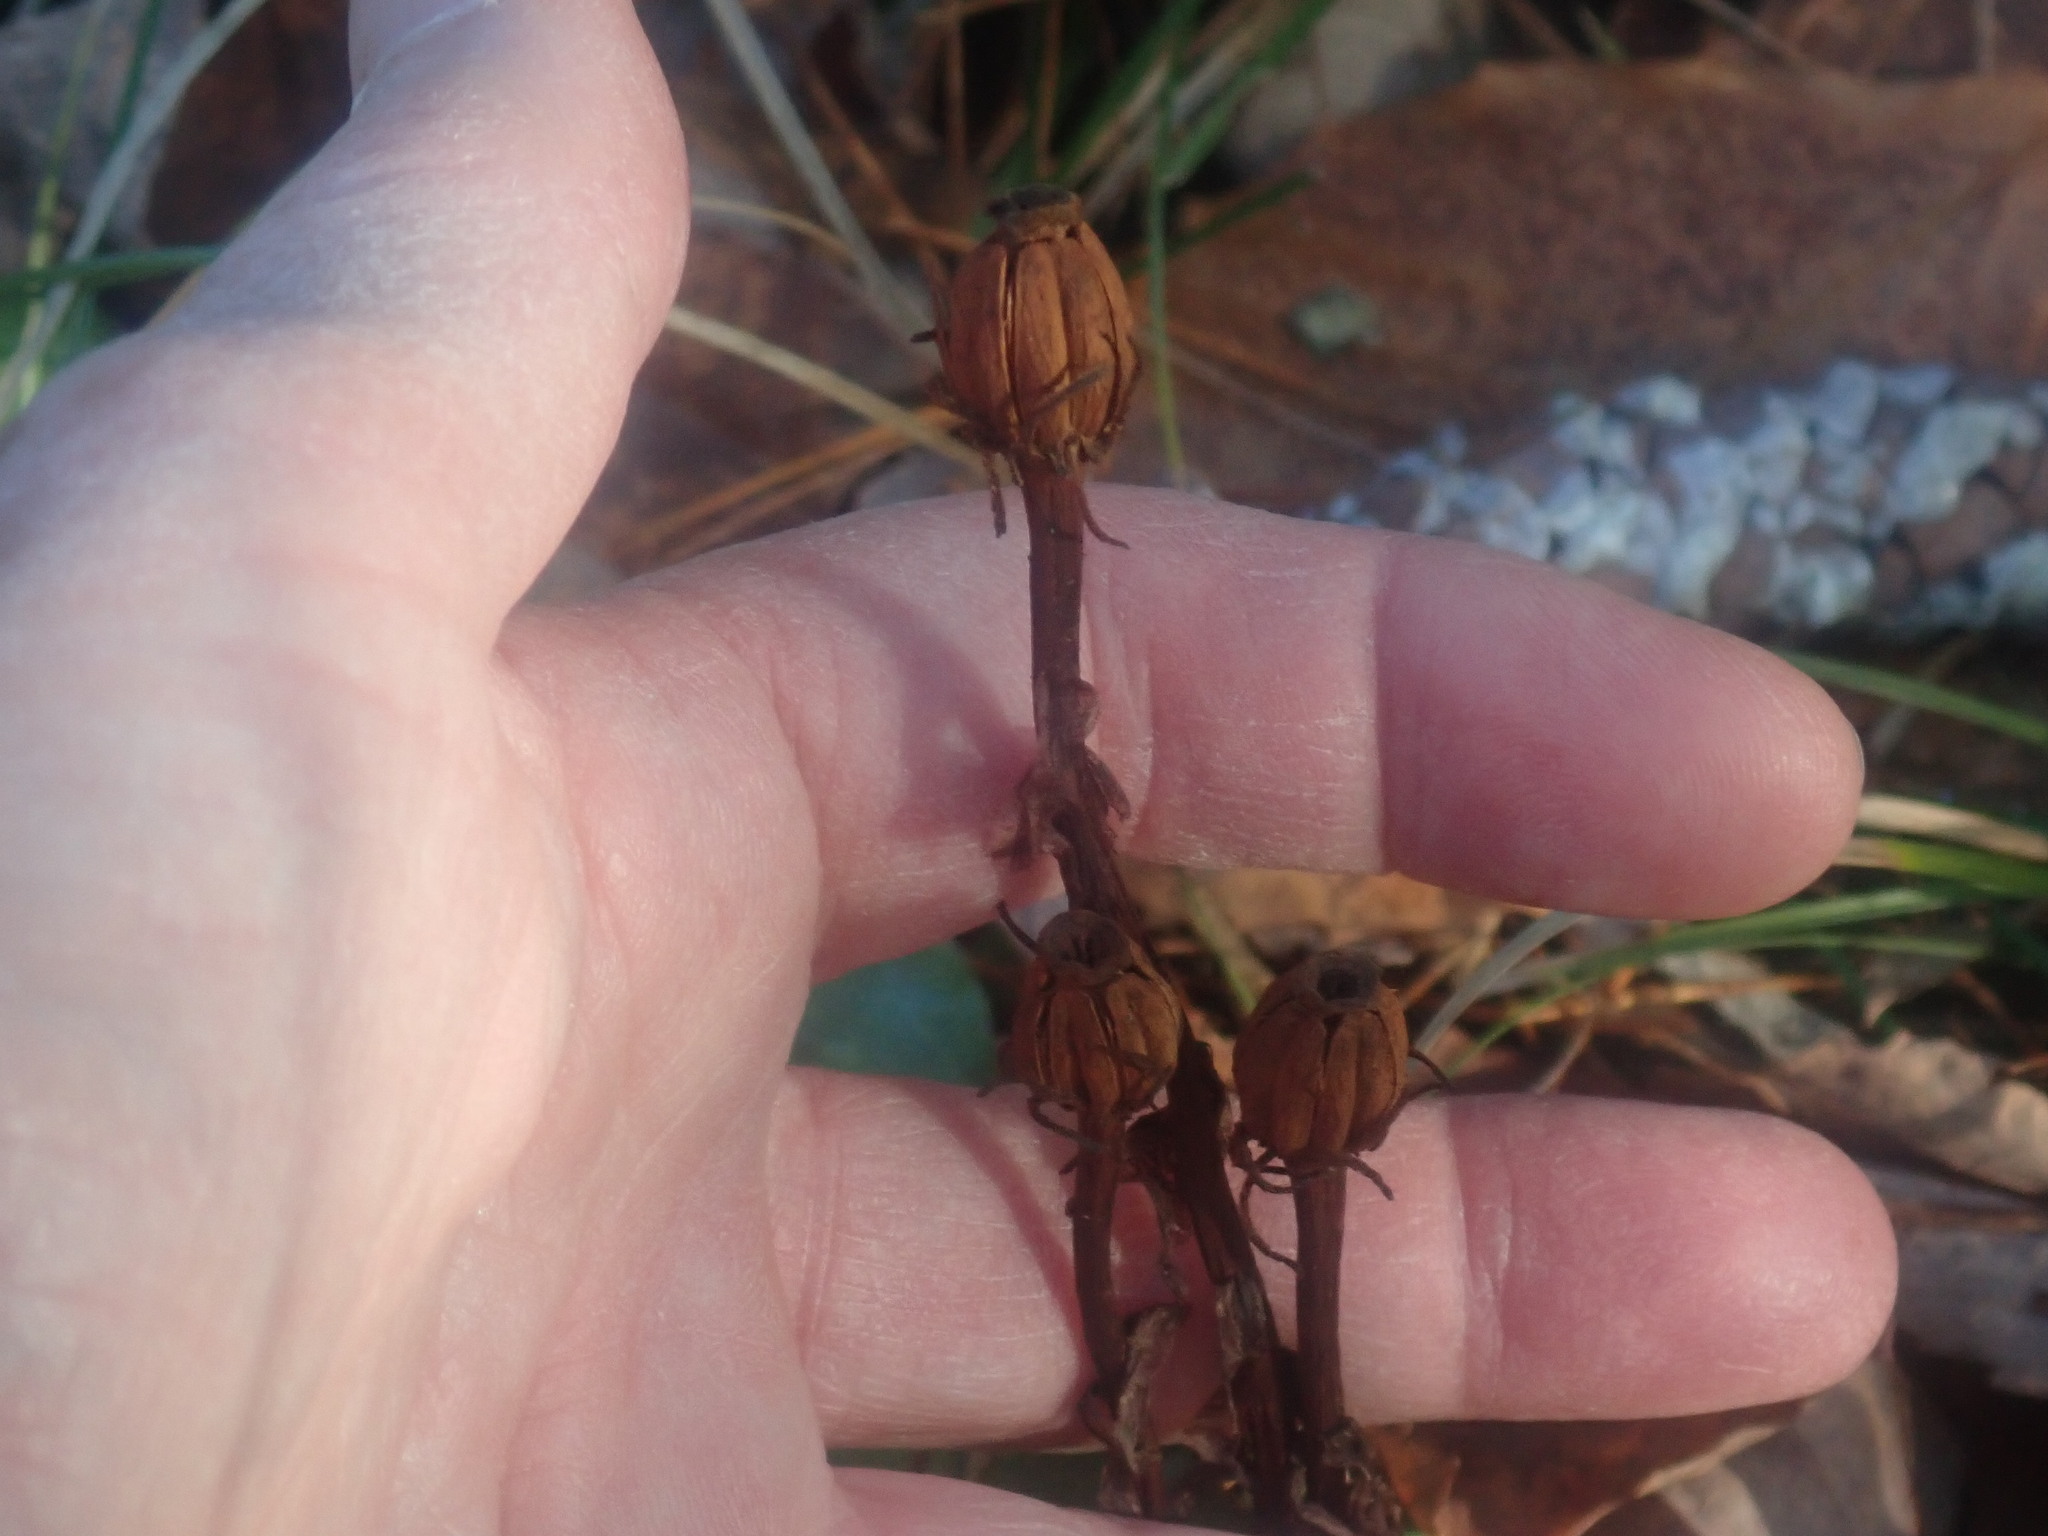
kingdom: Plantae
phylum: Tracheophyta
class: Magnoliopsida
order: Ericales
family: Ericaceae
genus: Monotropa
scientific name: Monotropa uniflora
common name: Convulsion root
